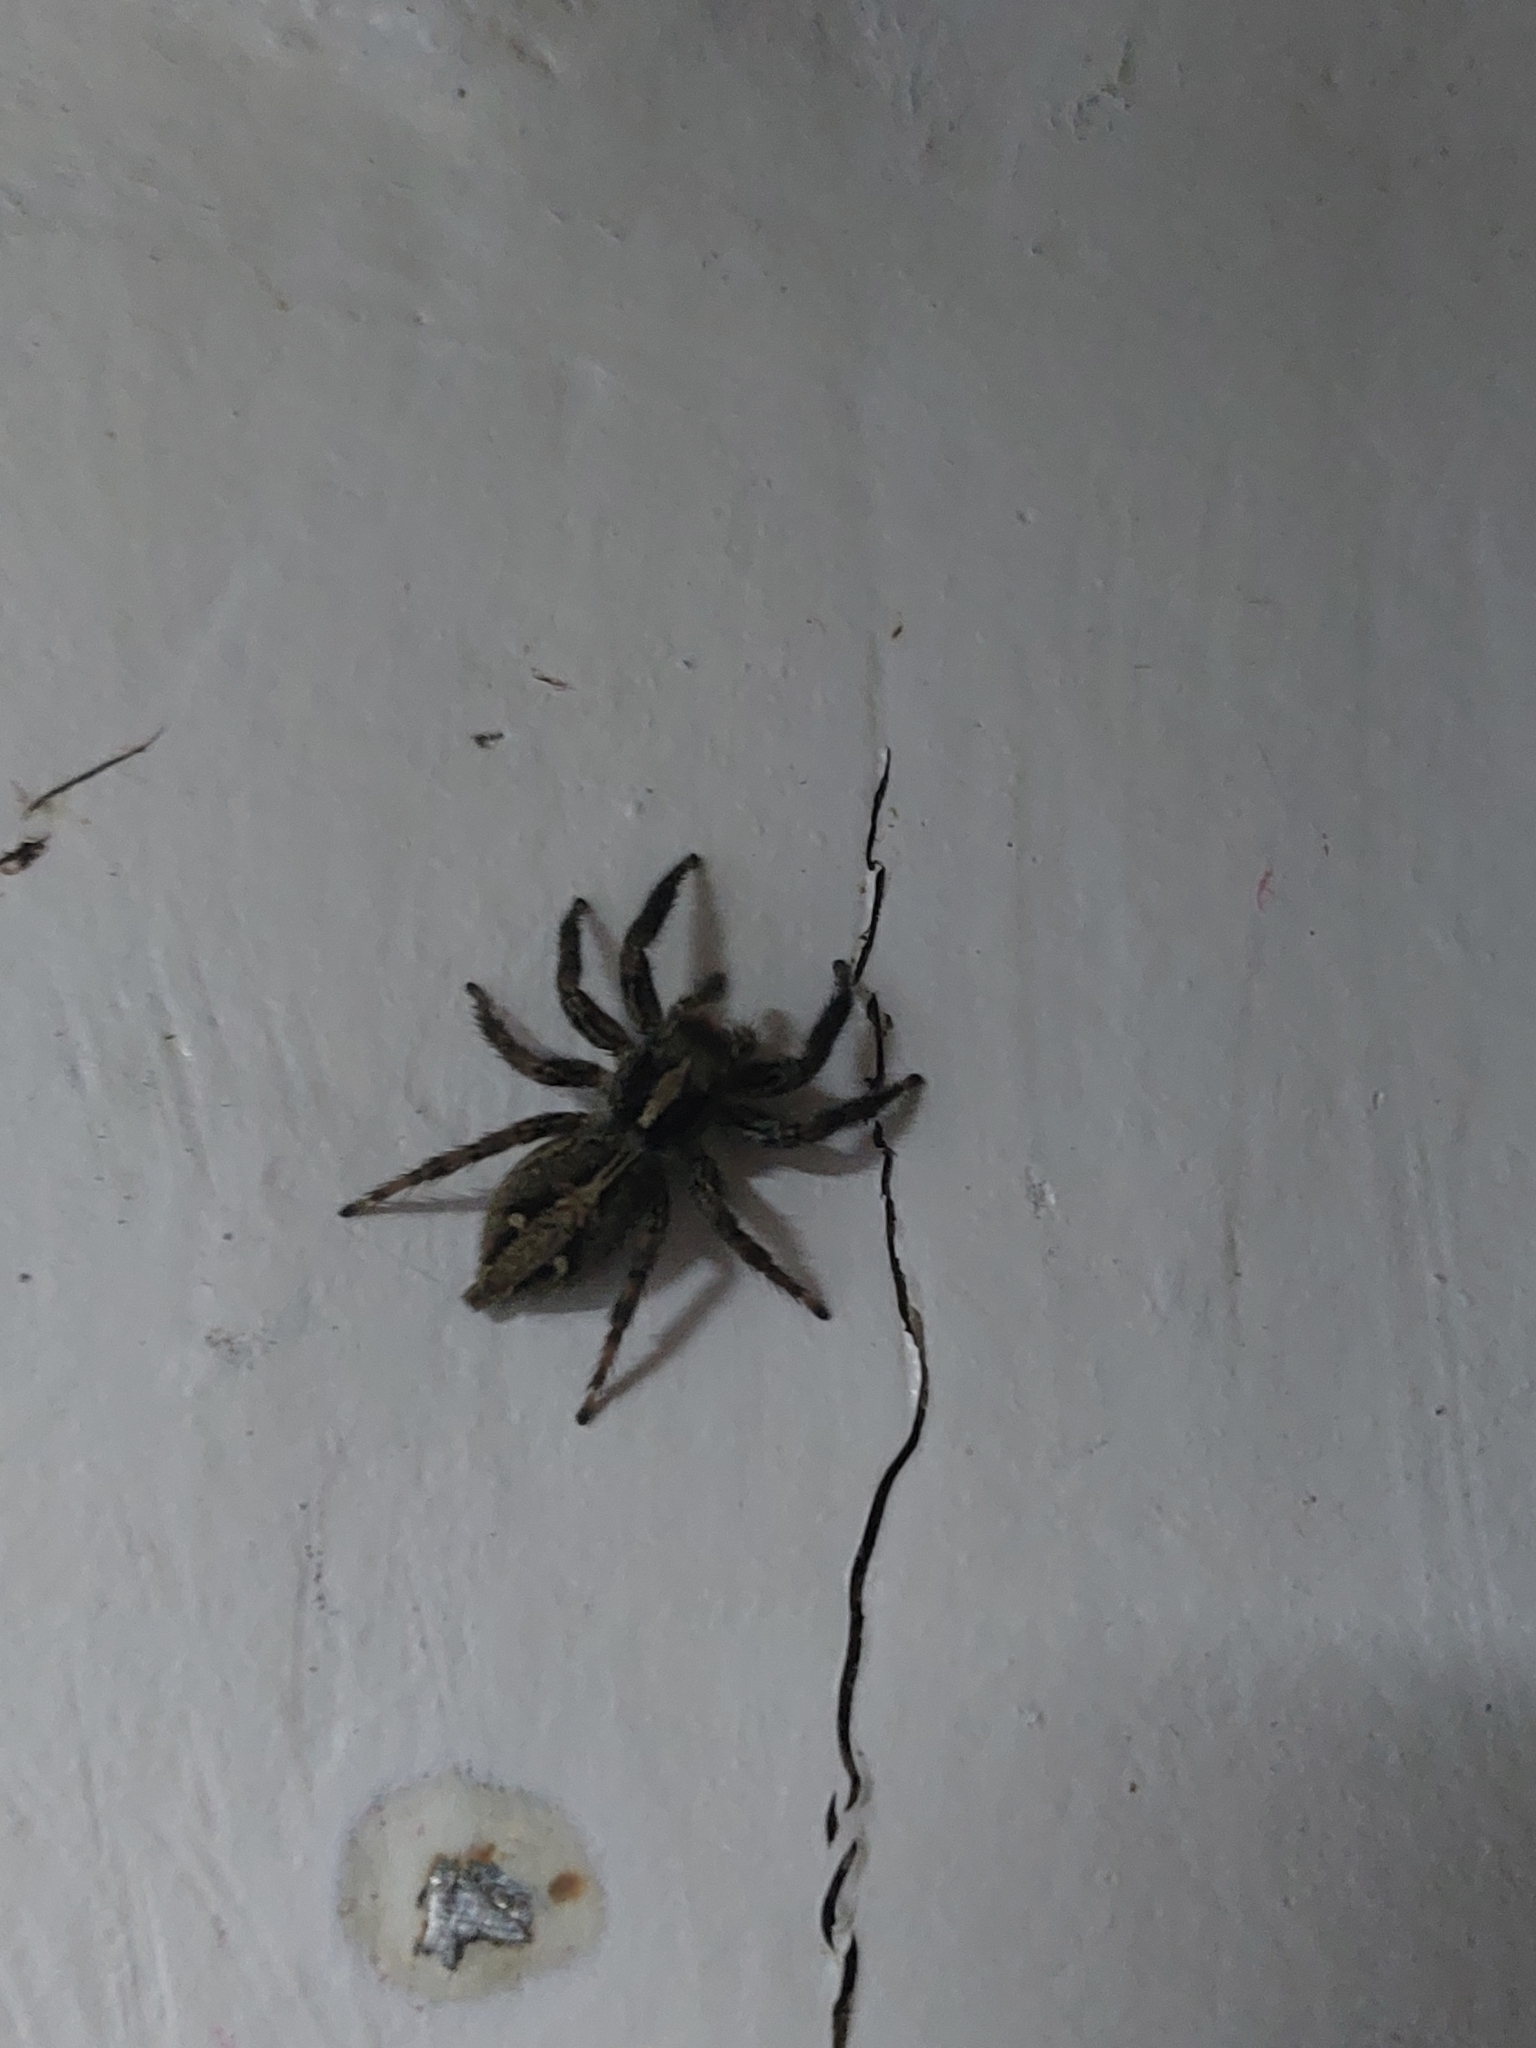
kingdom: Animalia
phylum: Arthropoda
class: Arachnida
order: Araneae
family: Salticidae
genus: Plexippus
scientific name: Plexippus paykulli
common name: Pantropical jumper
